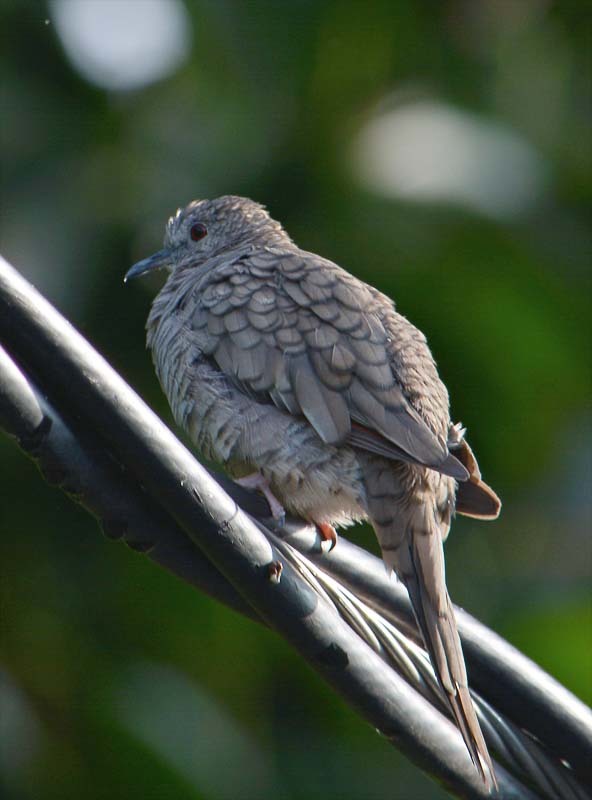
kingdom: Animalia
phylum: Chordata
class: Aves
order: Columbiformes
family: Columbidae
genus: Columbina
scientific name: Columbina inca
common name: Inca dove
